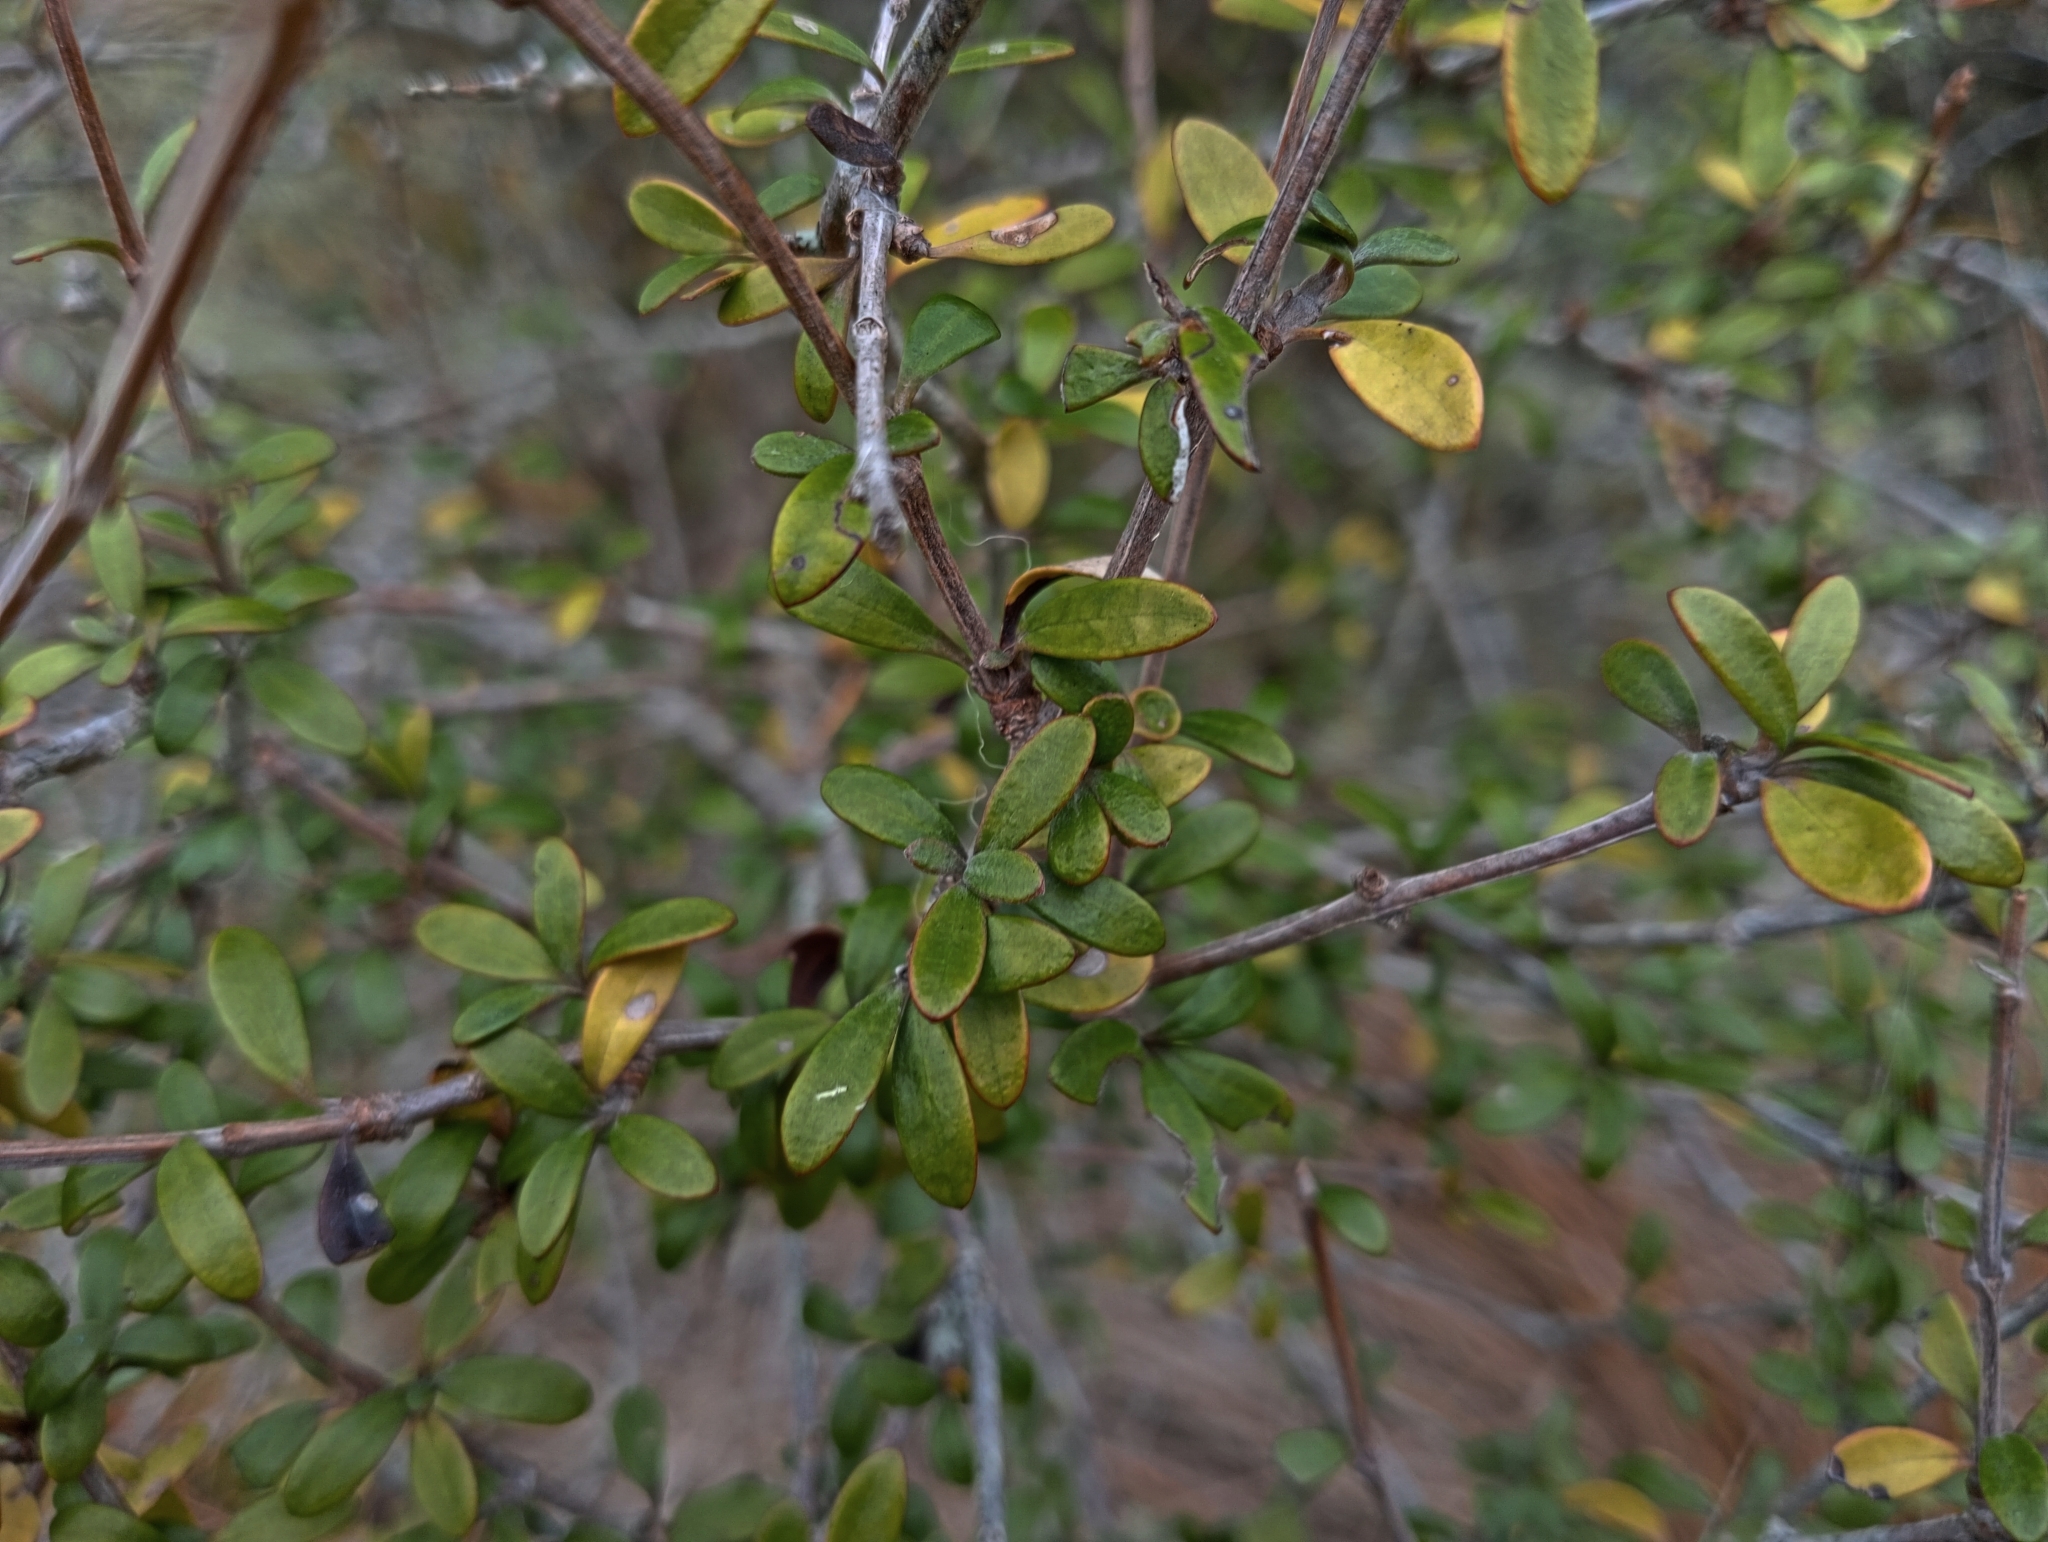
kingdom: Plantae
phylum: Tracheophyta
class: Magnoliopsida
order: Asterales
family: Asteraceae
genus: Olearia
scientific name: Olearia laxiflora
